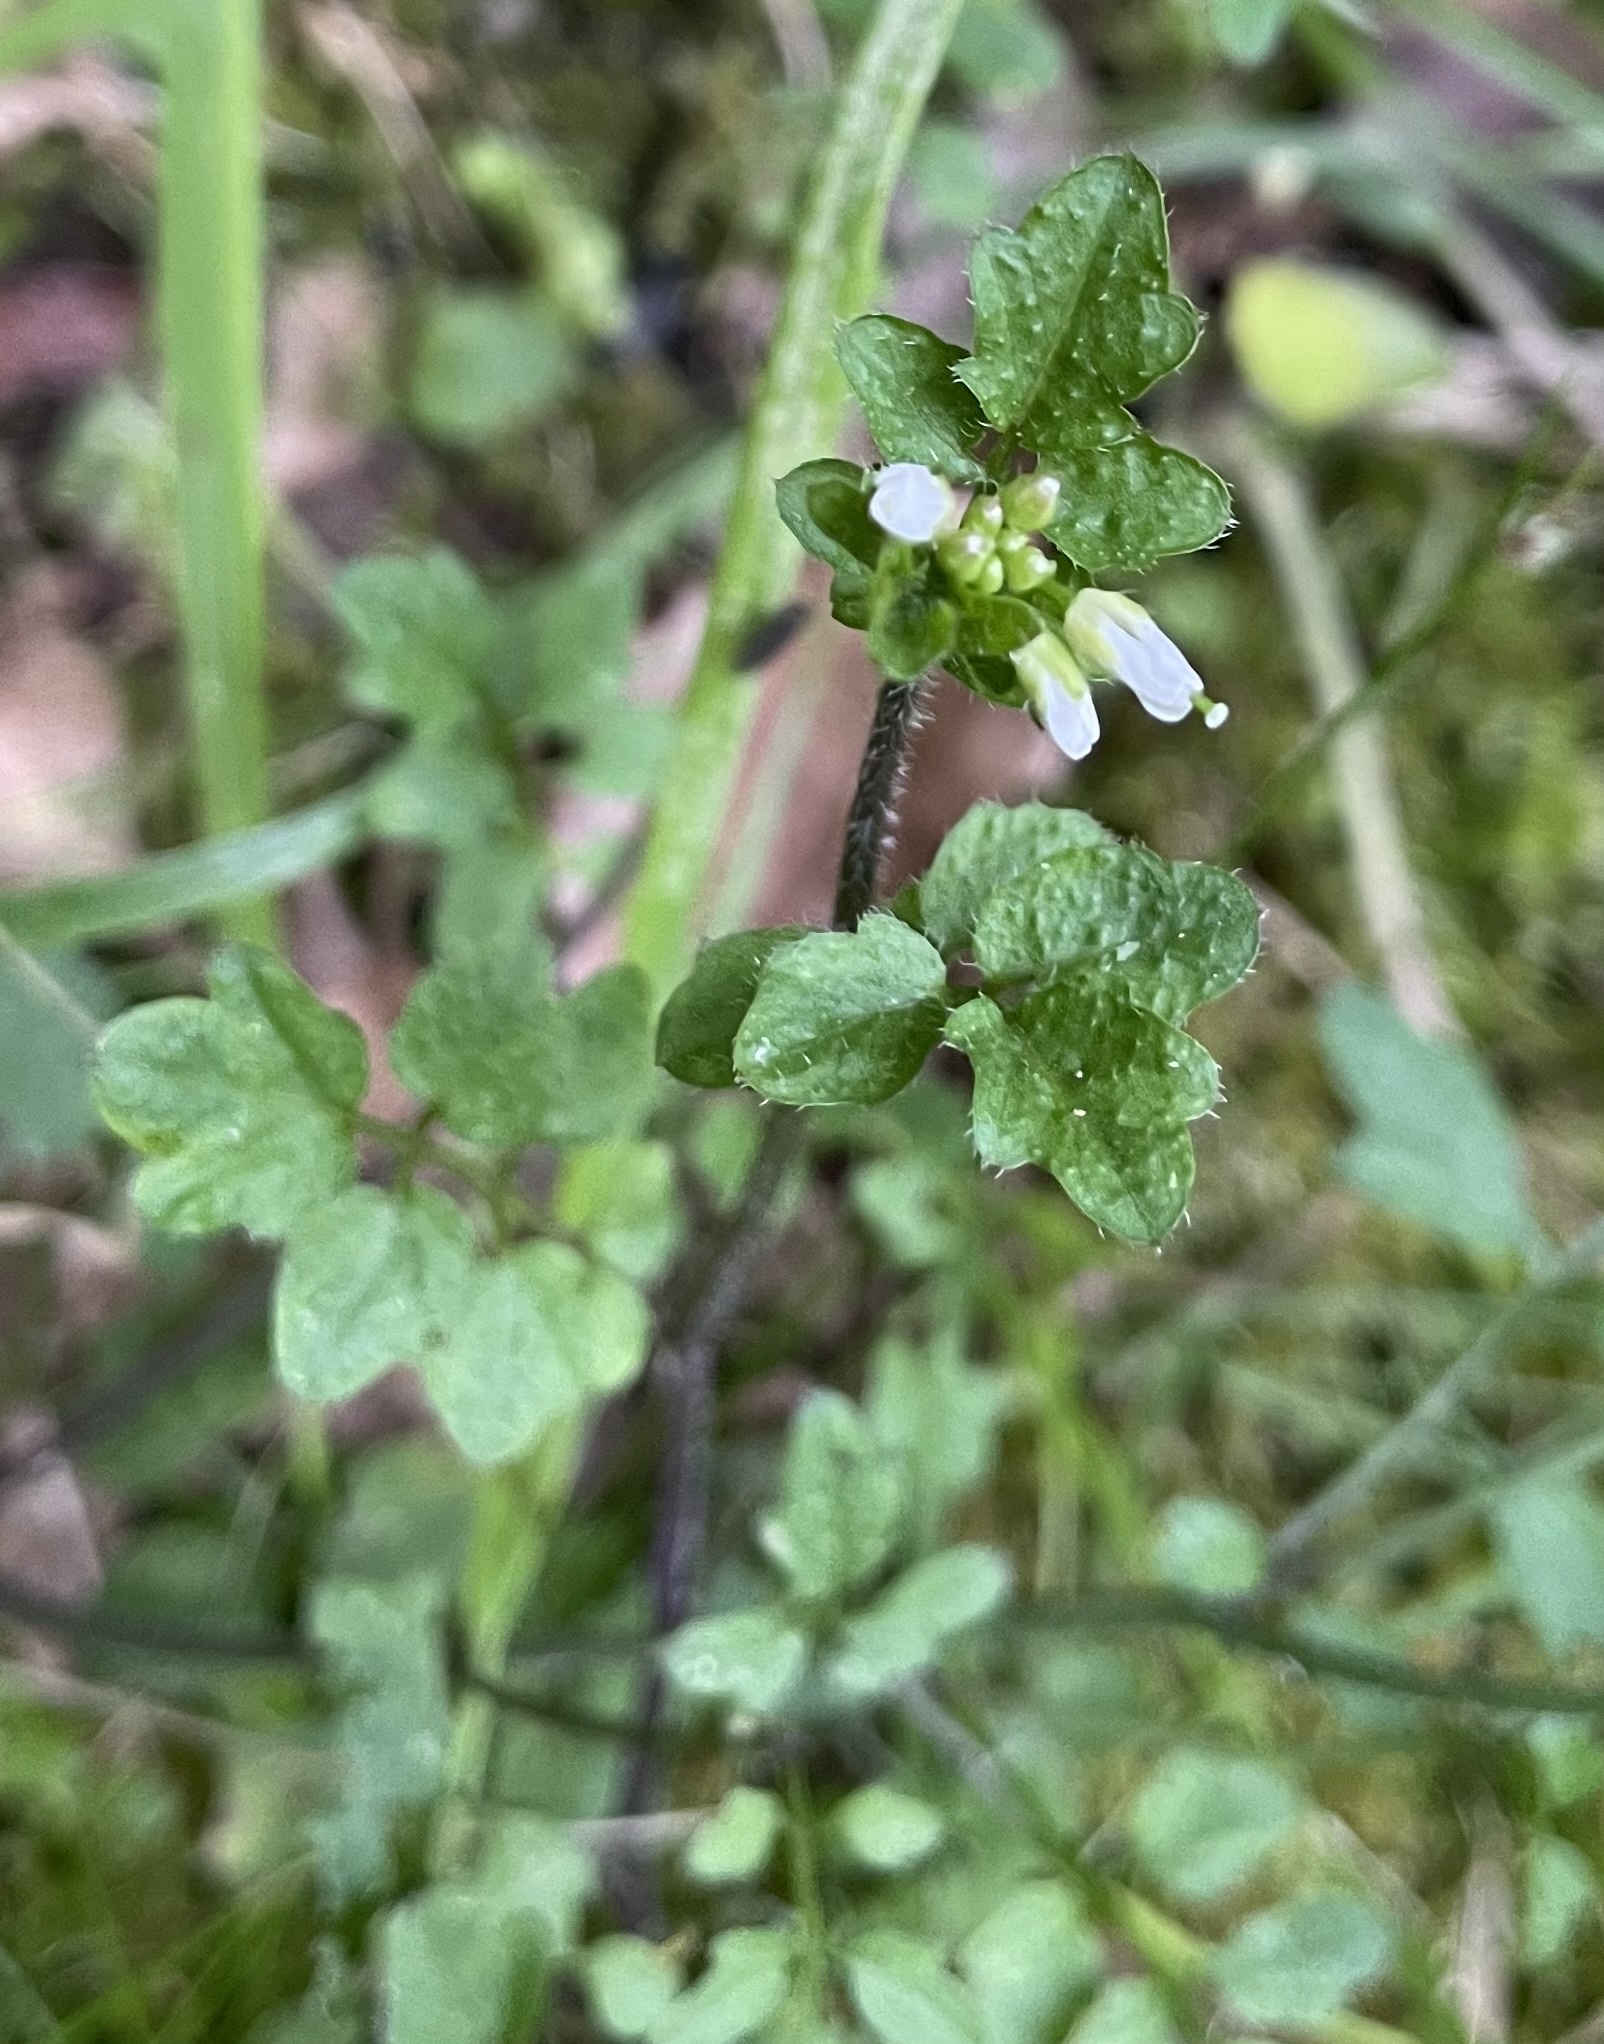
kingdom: Plantae
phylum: Tracheophyta
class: Magnoliopsida
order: Brassicales
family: Brassicaceae
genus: Cardamine
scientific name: Cardamine flexuosa
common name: Woodland bittercress
